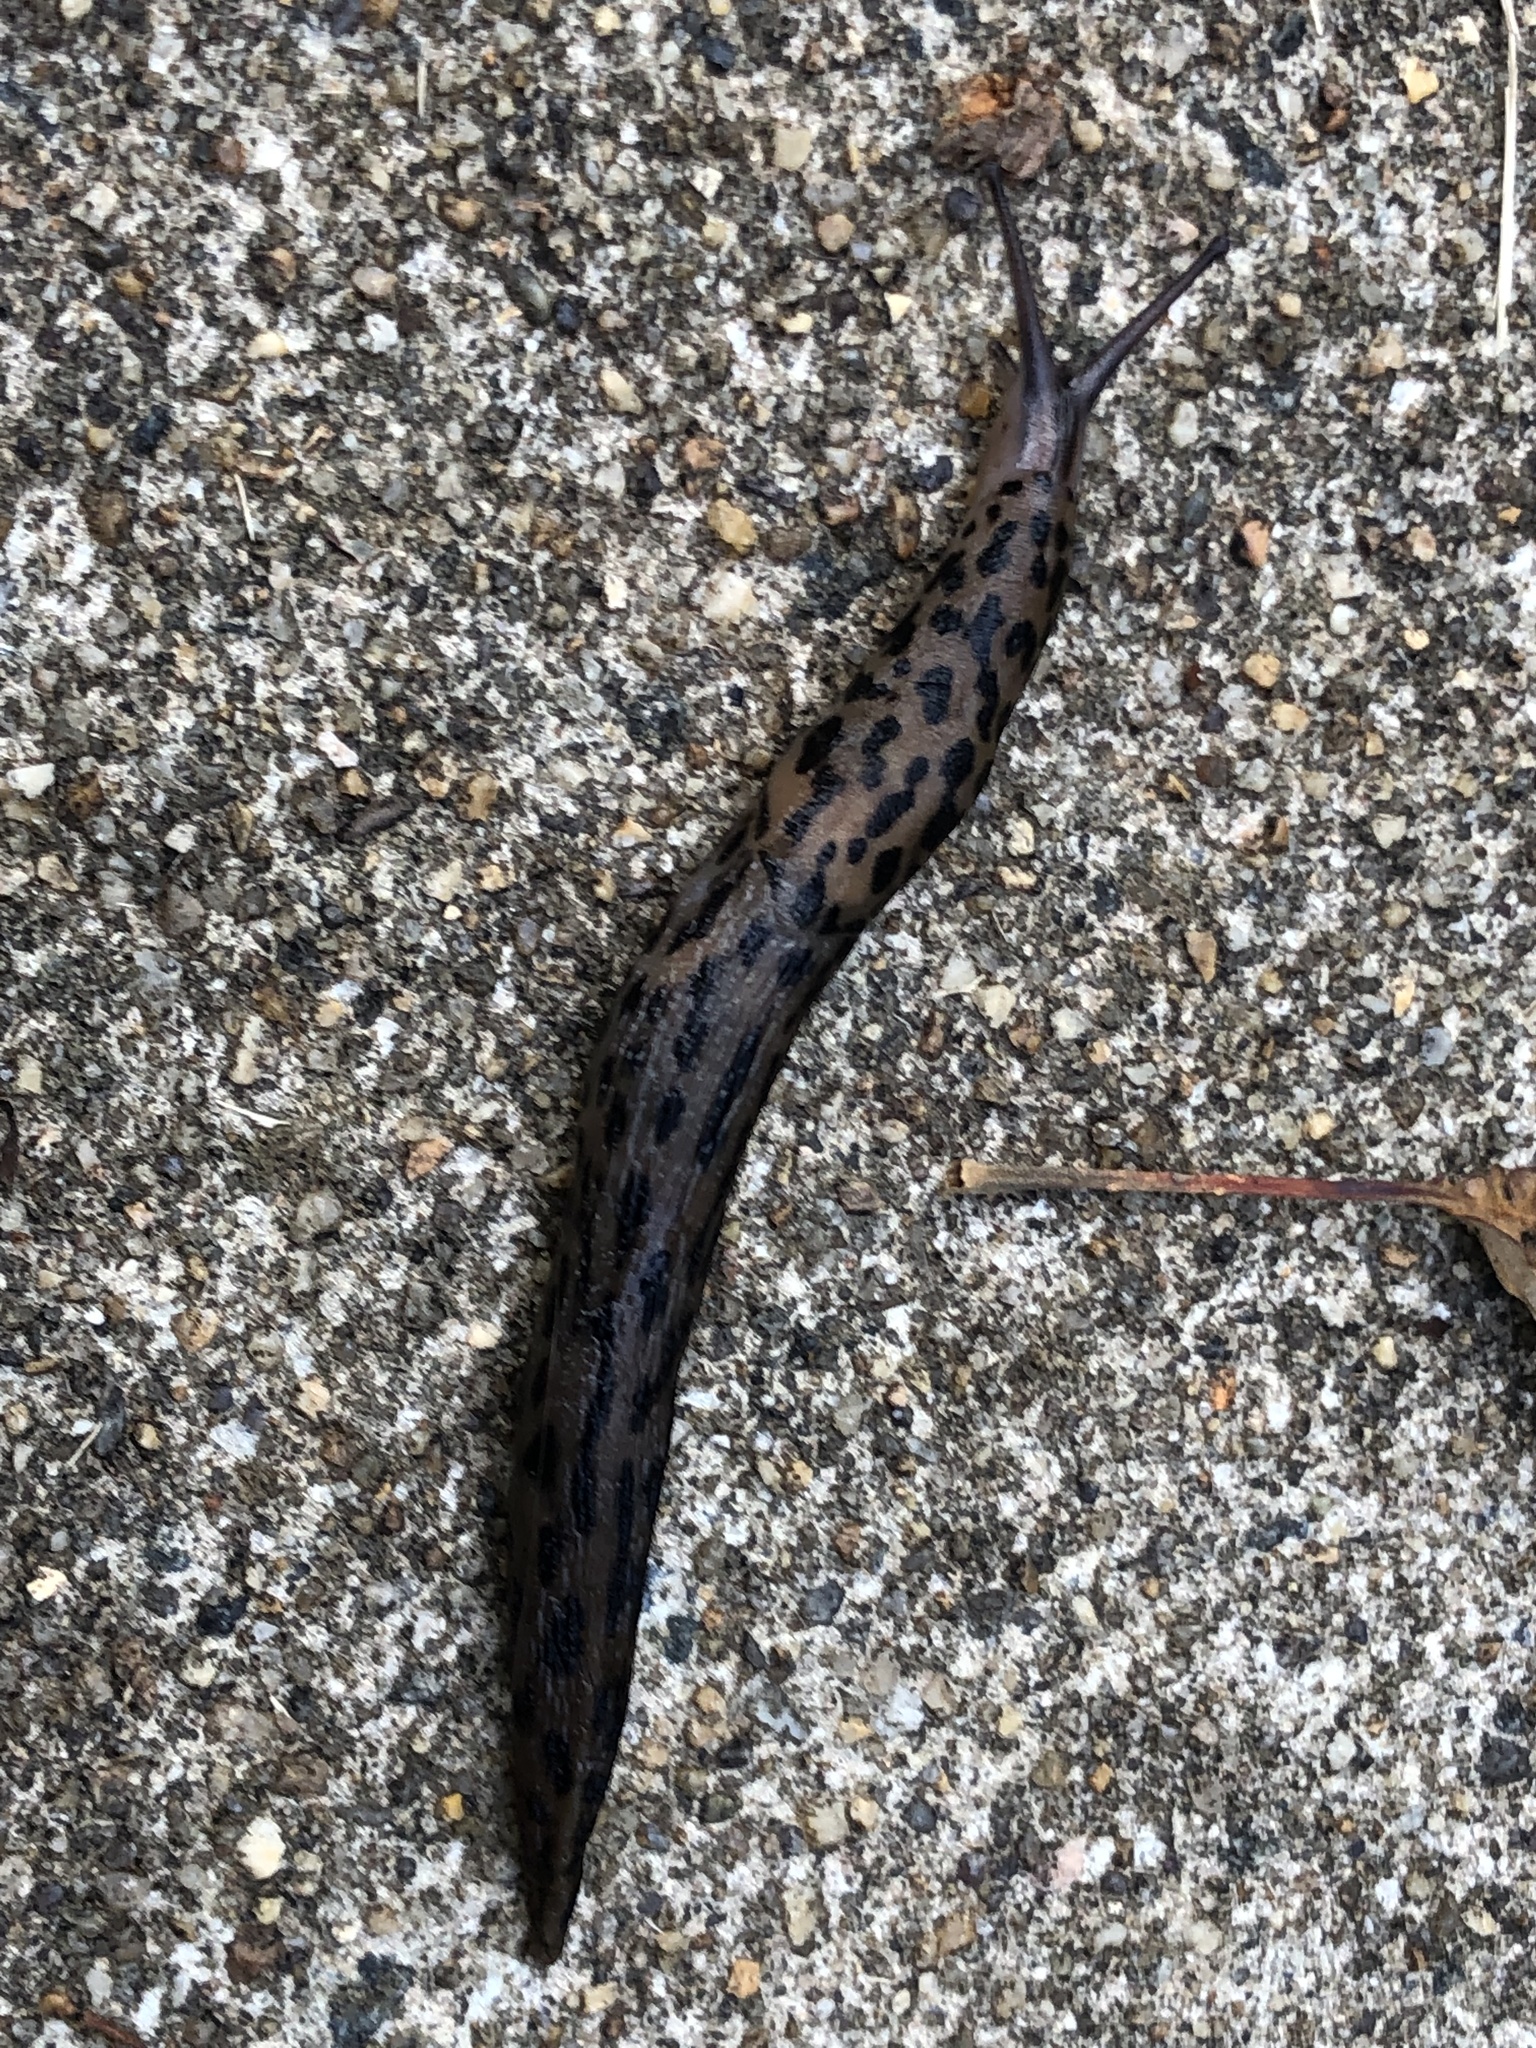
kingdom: Animalia
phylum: Mollusca
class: Gastropoda
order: Stylommatophora
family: Limacidae
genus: Limax
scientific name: Limax maximus
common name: Great grey slug
